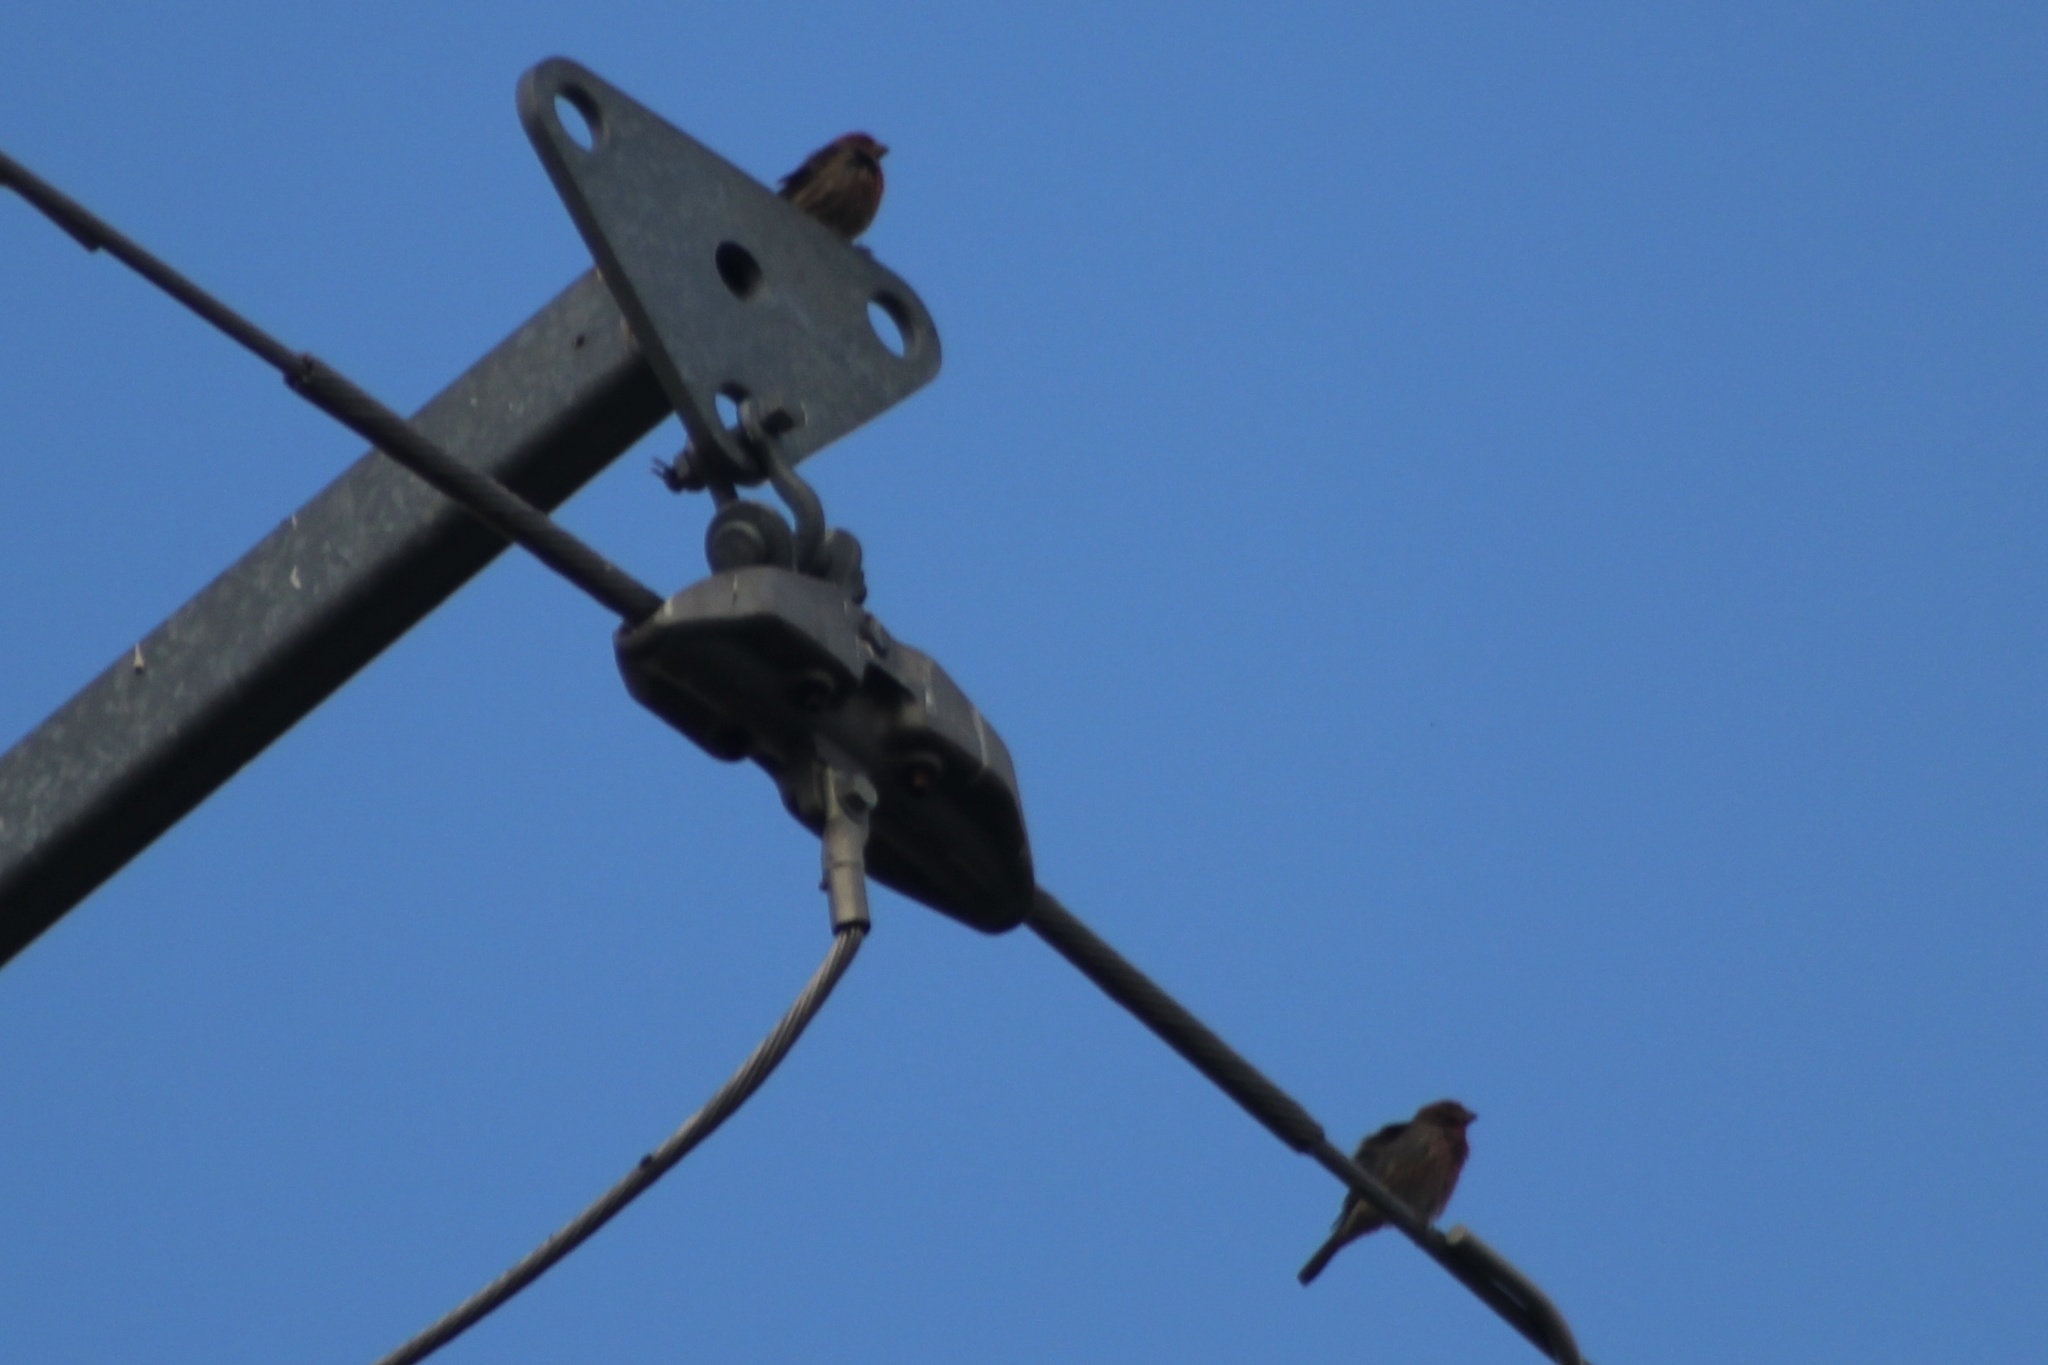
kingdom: Animalia
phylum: Chordata
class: Aves
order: Passeriformes
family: Fringillidae
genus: Haemorhous
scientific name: Haemorhous mexicanus
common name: House finch
